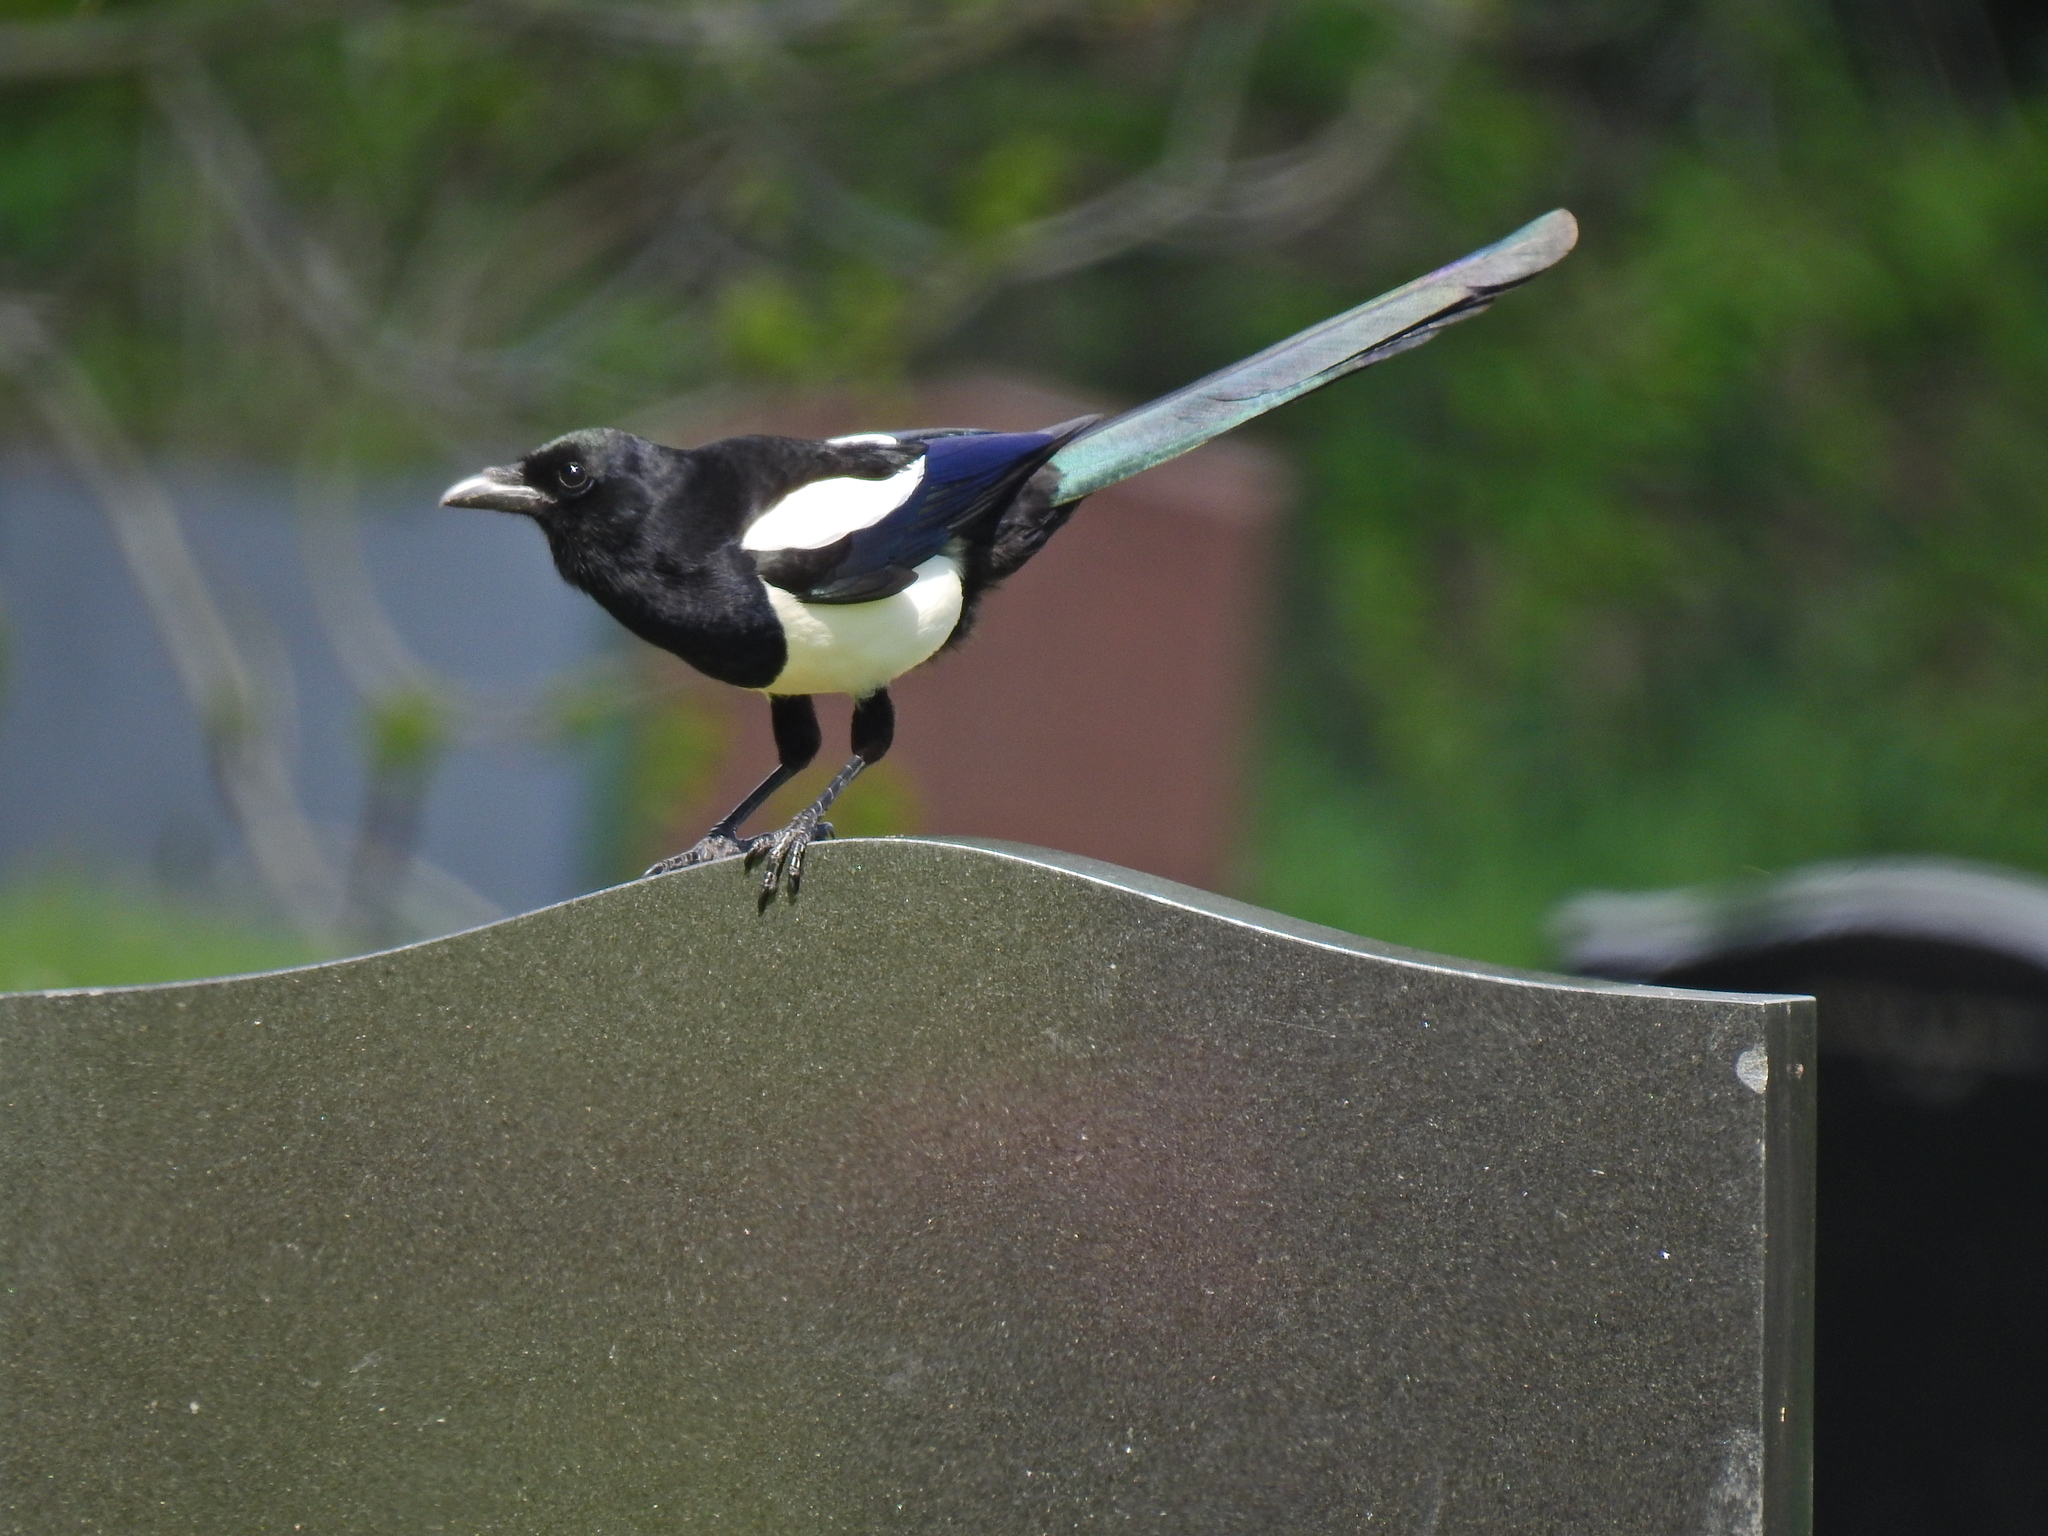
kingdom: Animalia
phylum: Chordata
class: Aves
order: Passeriformes
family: Corvidae
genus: Pica
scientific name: Pica pica
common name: Eurasian magpie
